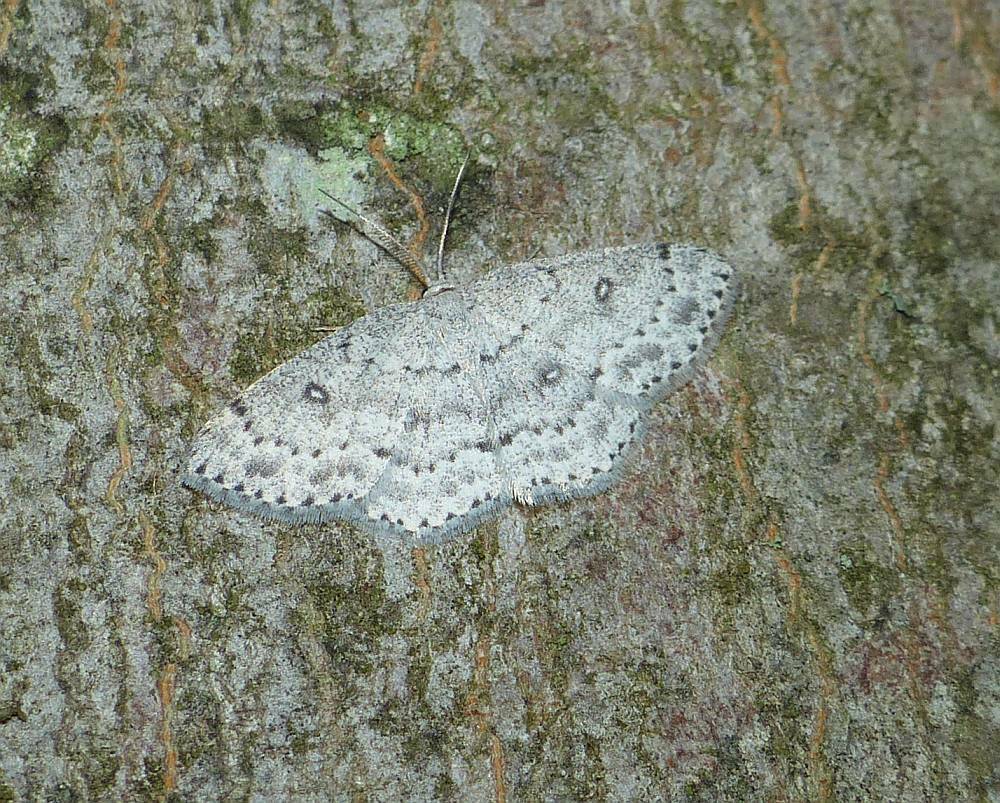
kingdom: Animalia
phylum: Arthropoda
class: Insecta
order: Lepidoptera
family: Geometridae
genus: Cyclophora
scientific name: Cyclophora pendulinaria
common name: Sweet fern geometer
